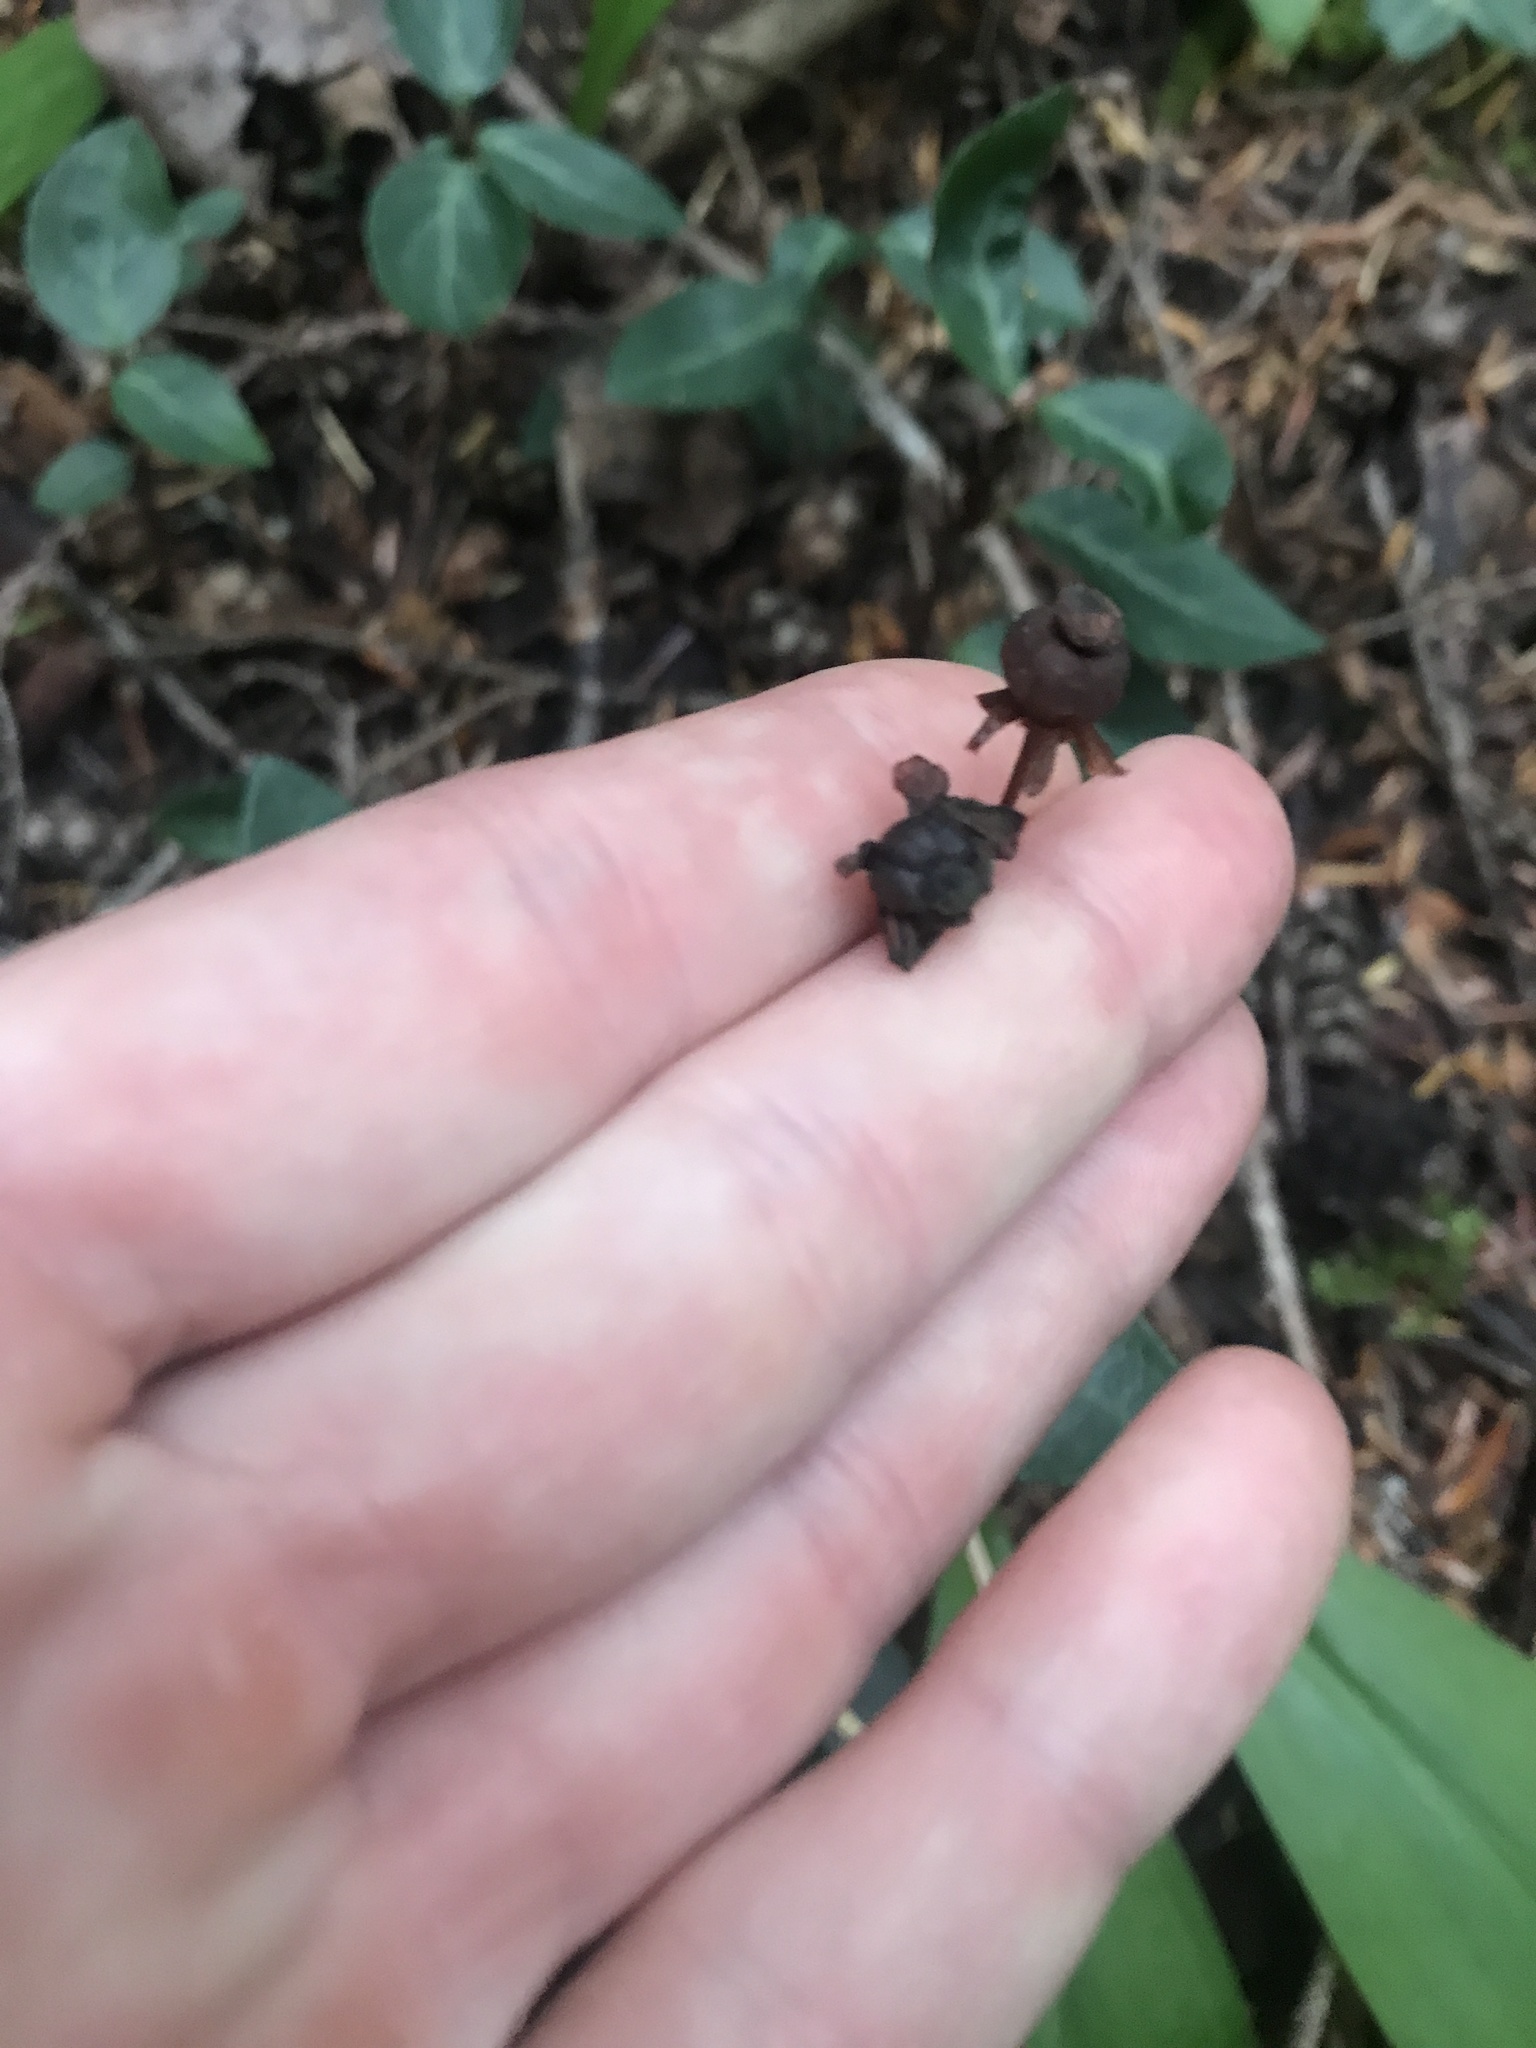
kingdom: Plantae
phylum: Tracheophyta
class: Magnoliopsida
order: Ericales
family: Ericaceae
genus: Chimaphila
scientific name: Chimaphila menziesii
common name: Menzies' pipsissewa
